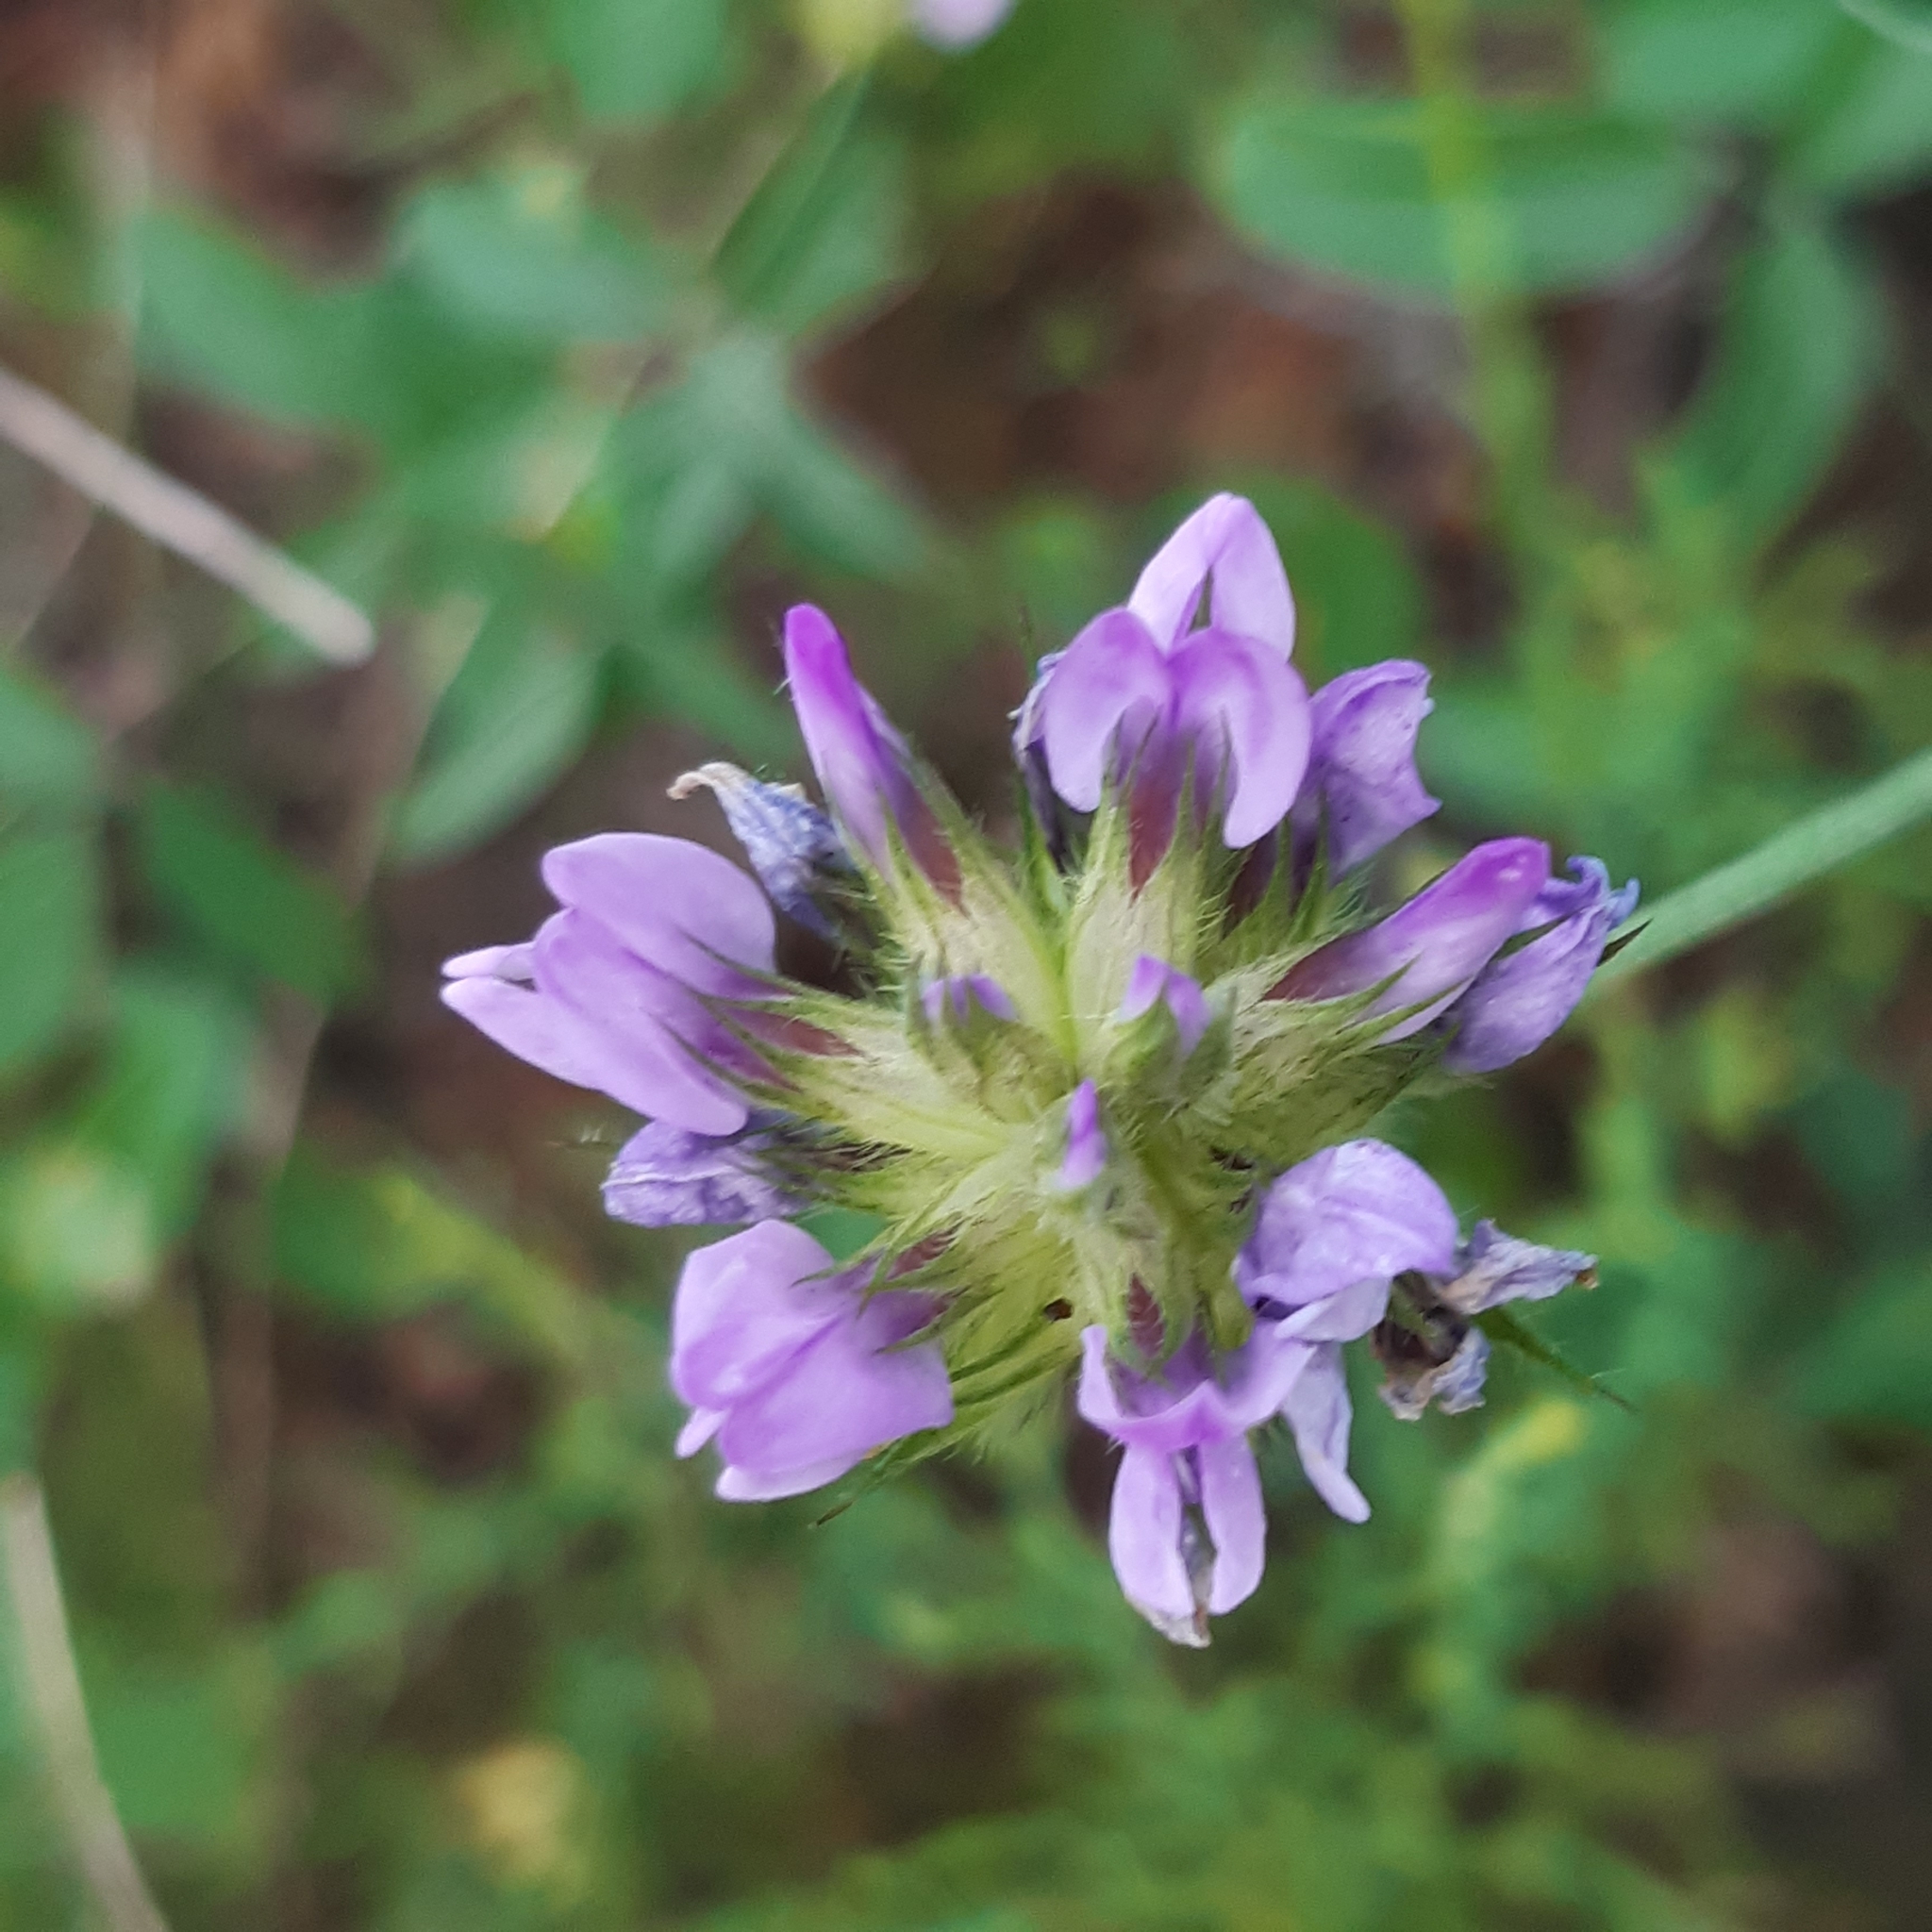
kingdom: Plantae
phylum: Tracheophyta
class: Magnoliopsida
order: Fabales
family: Fabaceae
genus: Bituminaria
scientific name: Bituminaria bituminosa
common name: Arabian pea
